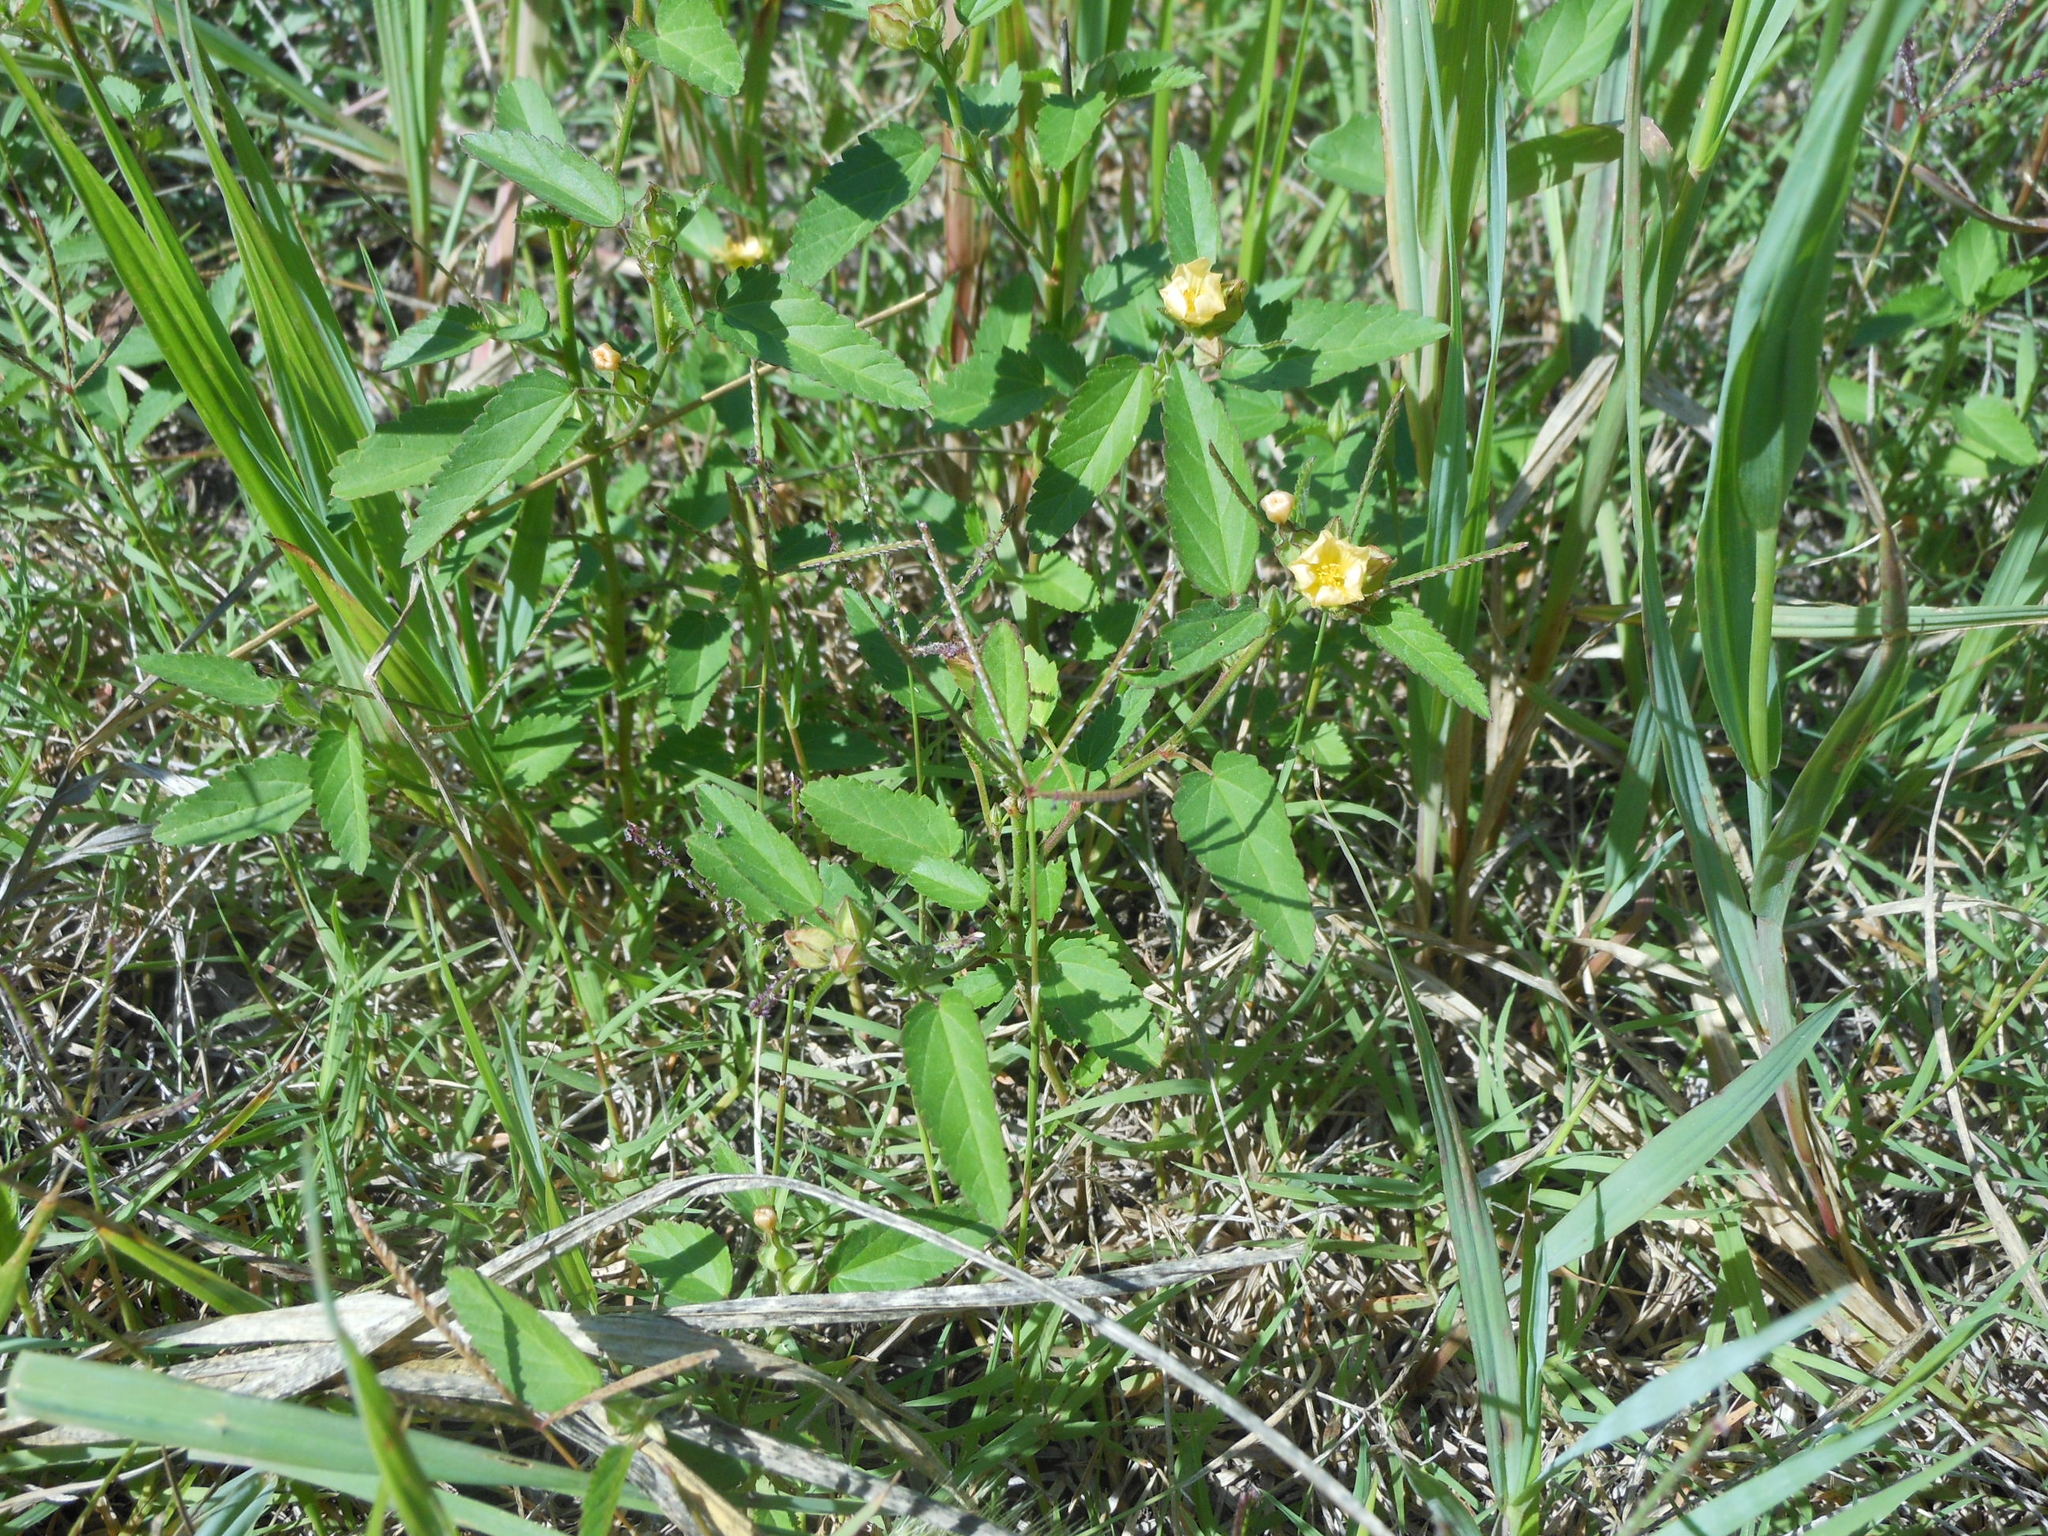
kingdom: Plantae
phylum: Tracheophyta
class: Magnoliopsida
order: Malvales
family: Malvaceae
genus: Sida
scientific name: Sida spinosa
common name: Prickly fanpetals
